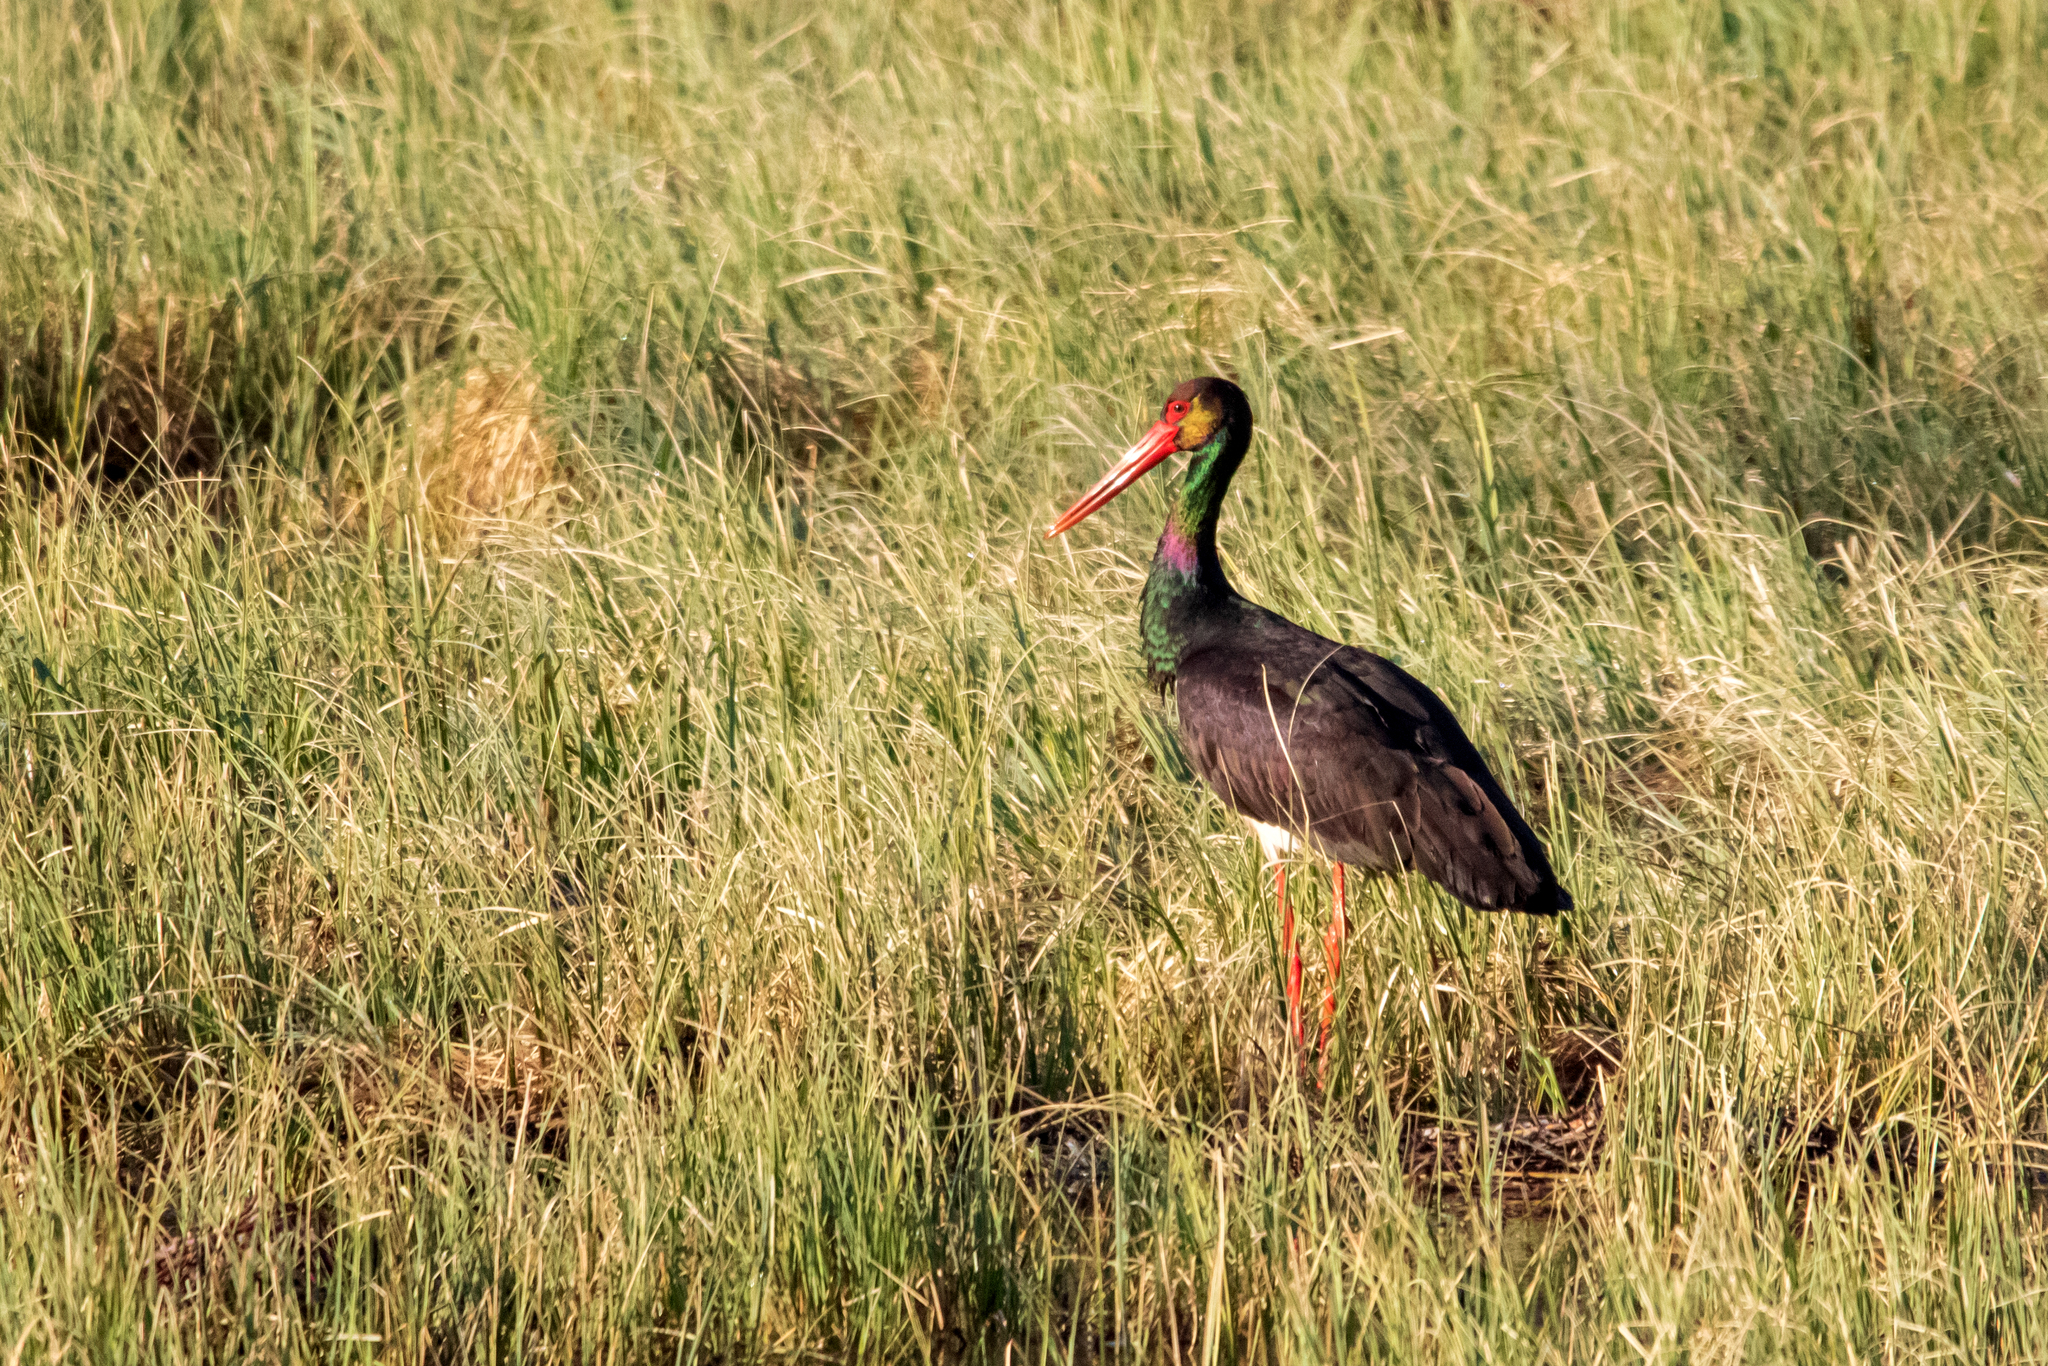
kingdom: Animalia
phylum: Chordata
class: Aves
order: Ciconiiformes
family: Ciconiidae
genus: Ciconia
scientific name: Ciconia nigra
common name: Black stork
